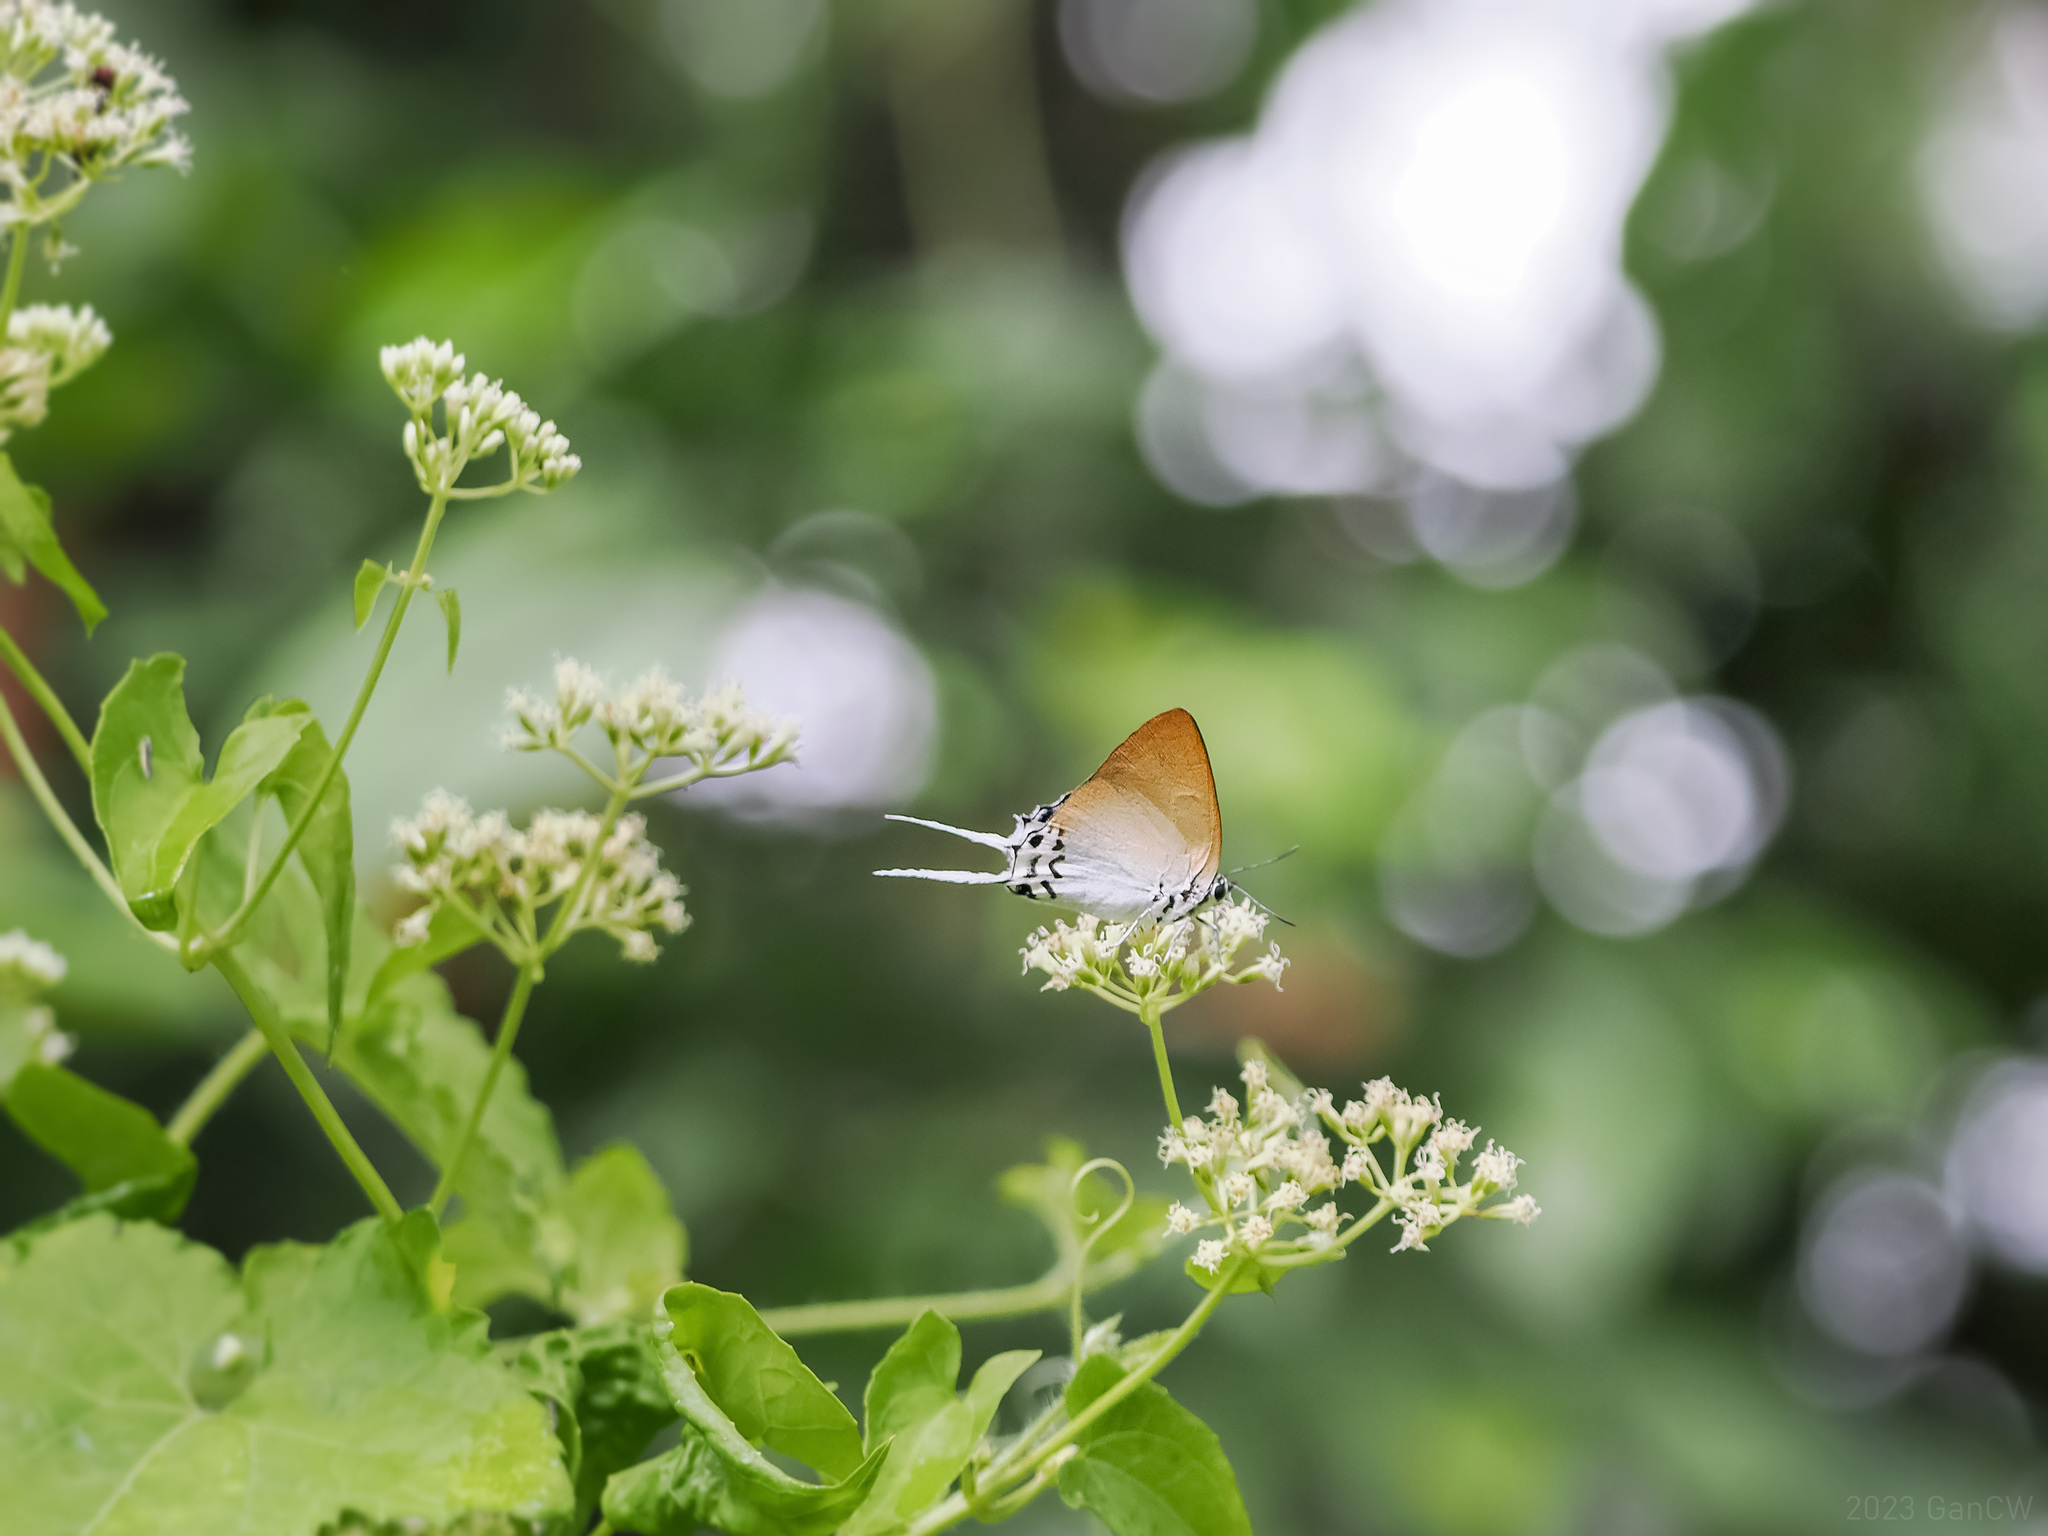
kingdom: Animalia
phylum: Arthropoda
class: Insecta
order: Lepidoptera
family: Lycaenidae
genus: Jacoona
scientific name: Jacoona anasuja
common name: Great imperial
